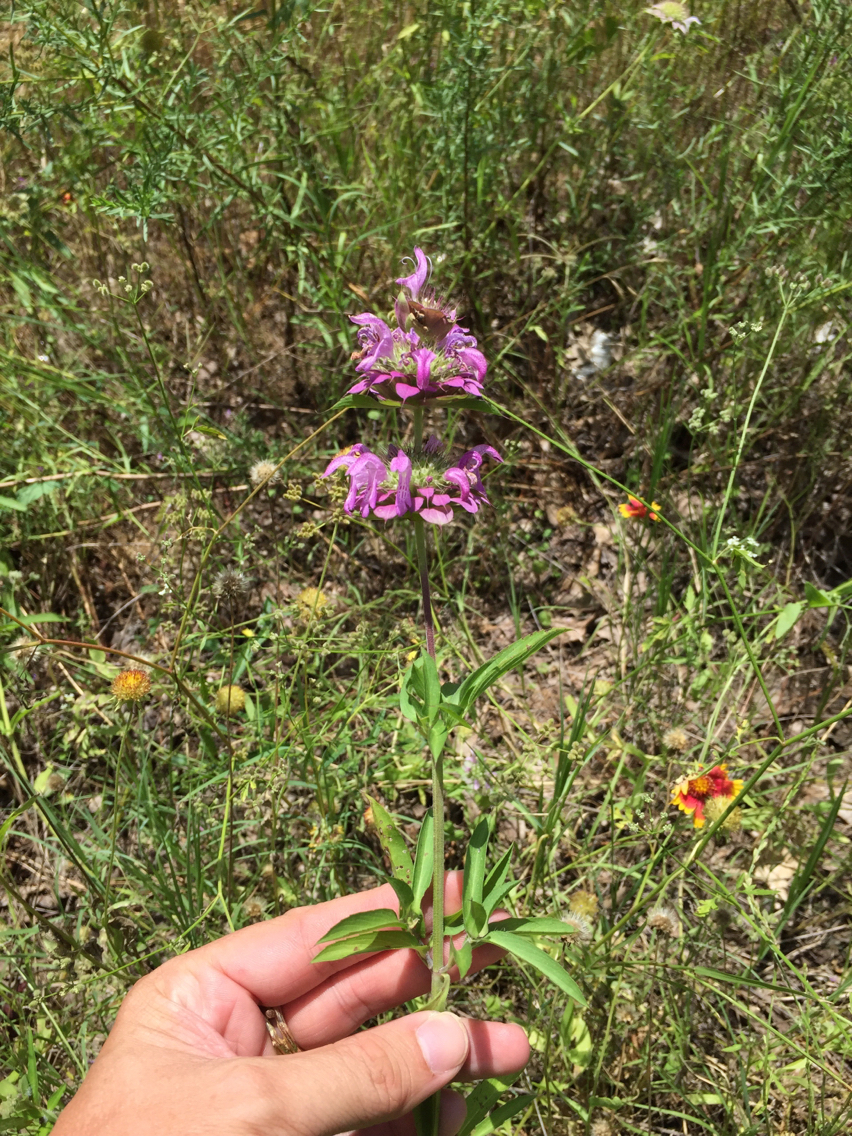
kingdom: Plantae
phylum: Tracheophyta
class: Magnoliopsida
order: Lamiales
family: Lamiaceae
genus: Monarda
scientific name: Monarda citriodora
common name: Lemon beebalm
